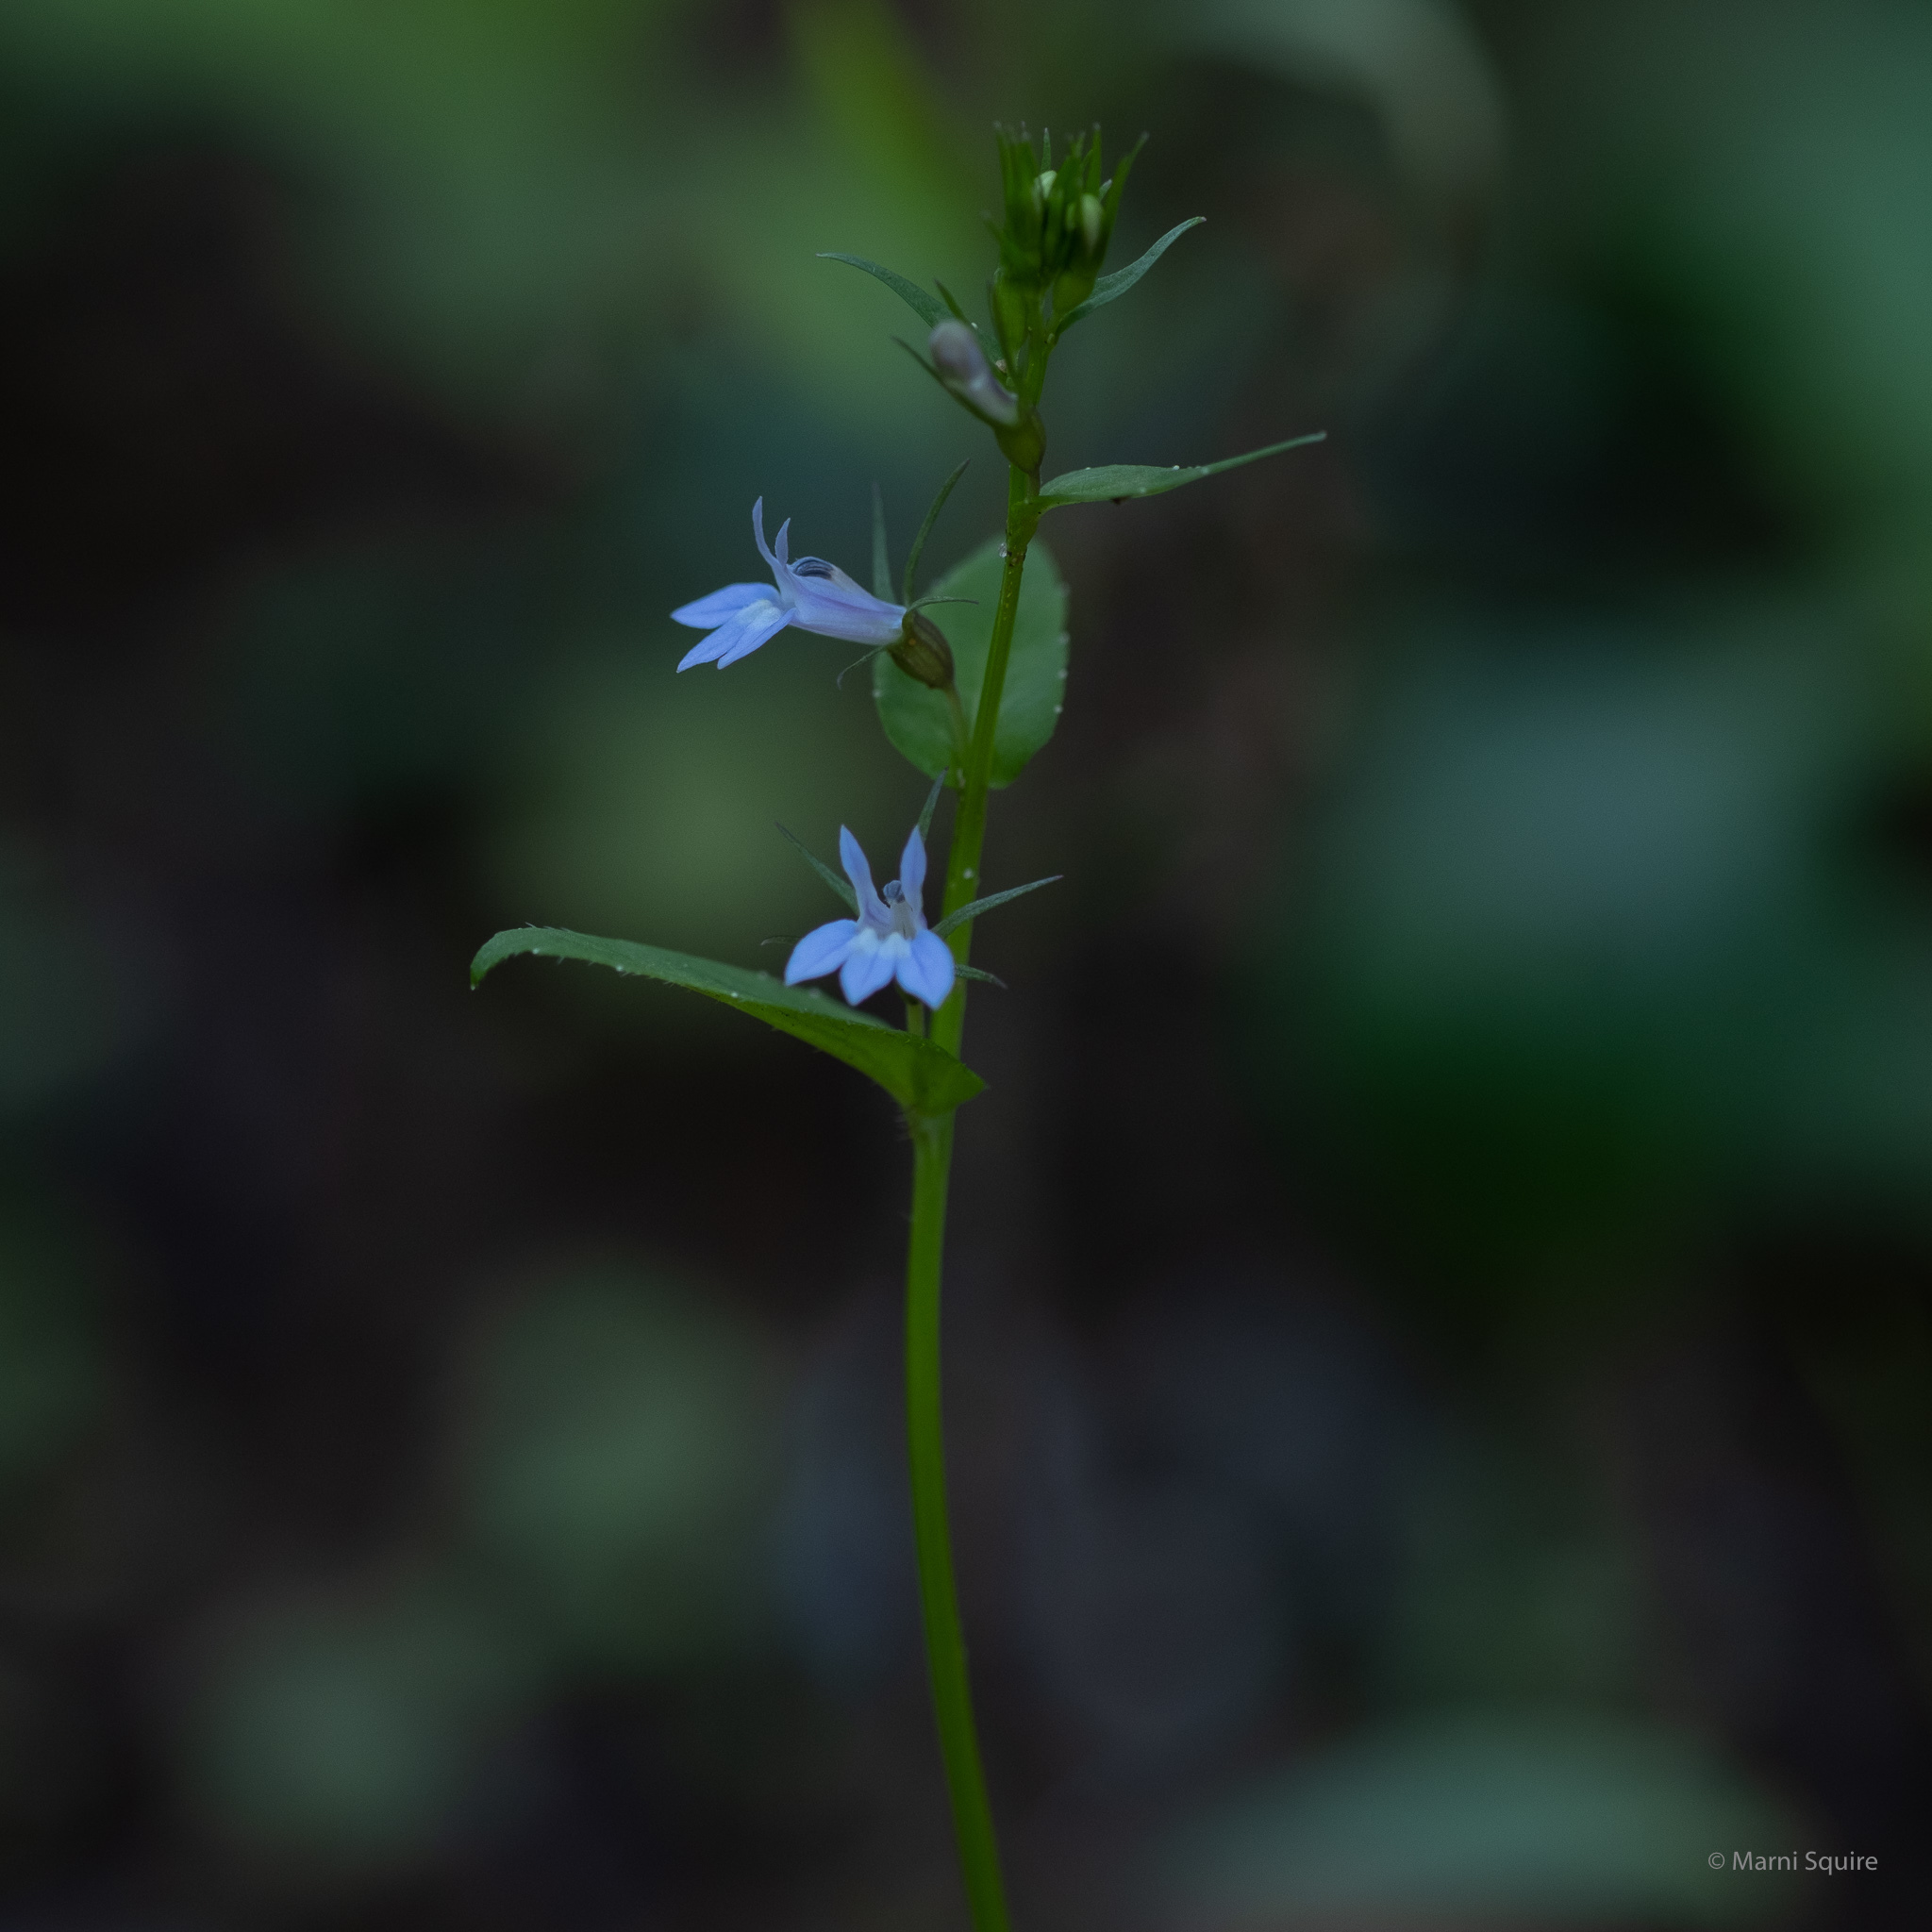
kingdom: Plantae
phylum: Tracheophyta
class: Magnoliopsida
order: Asterales
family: Campanulaceae
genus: Lobelia
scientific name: Lobelia inflata
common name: Indian tobacco
